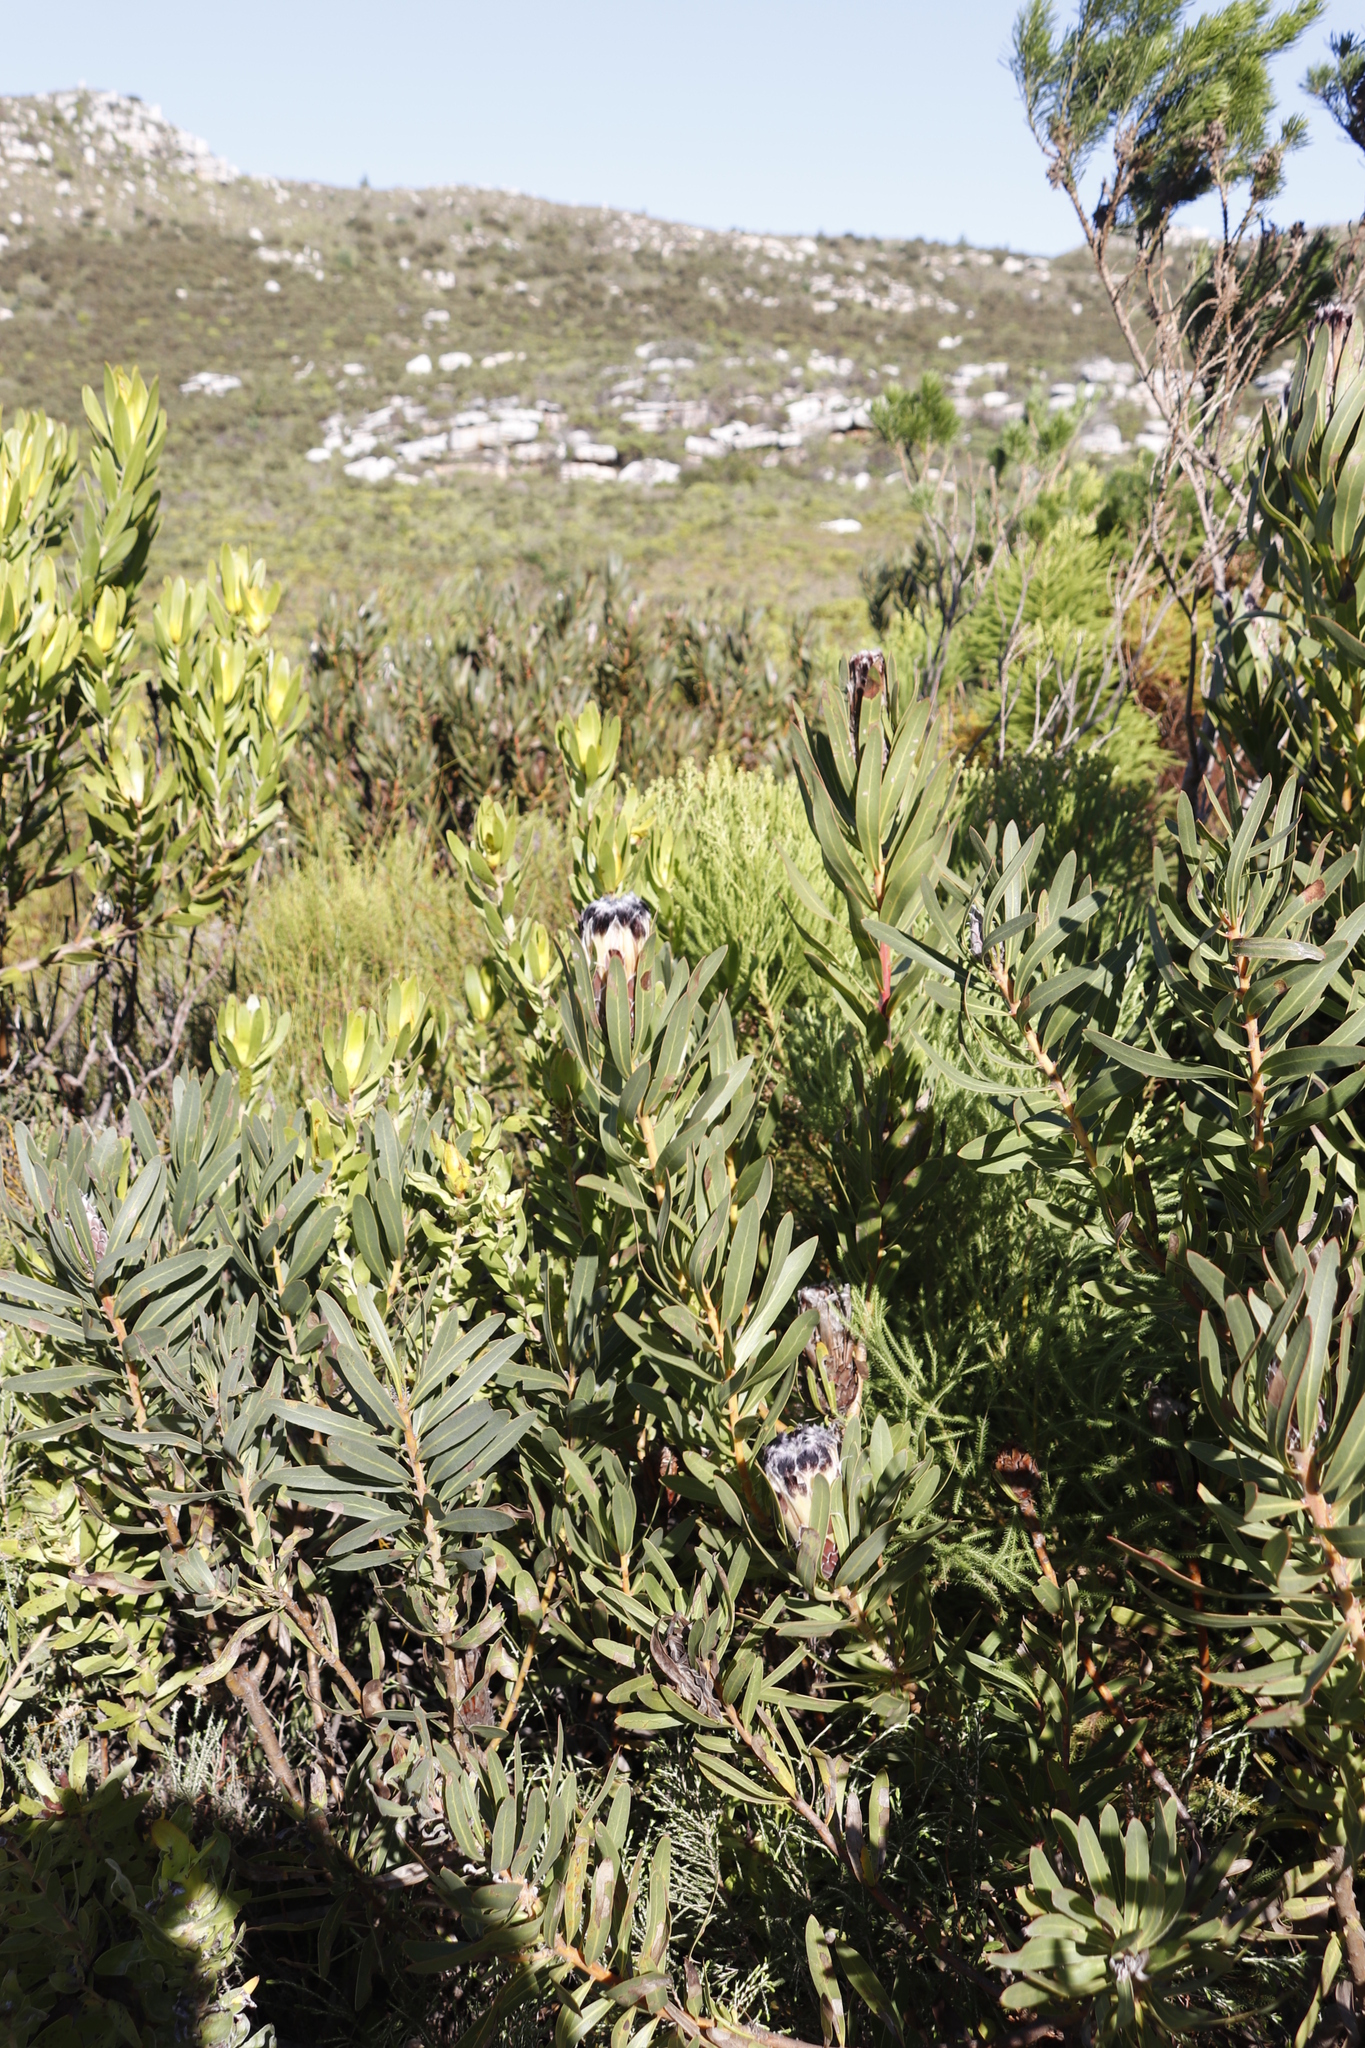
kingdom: Plantae
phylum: Tracheophyta
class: Magnoliopsida
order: Proteales
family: Proteaceae
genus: Protea
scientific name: Protea lepidocarpodendron
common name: Black-bearded protea
